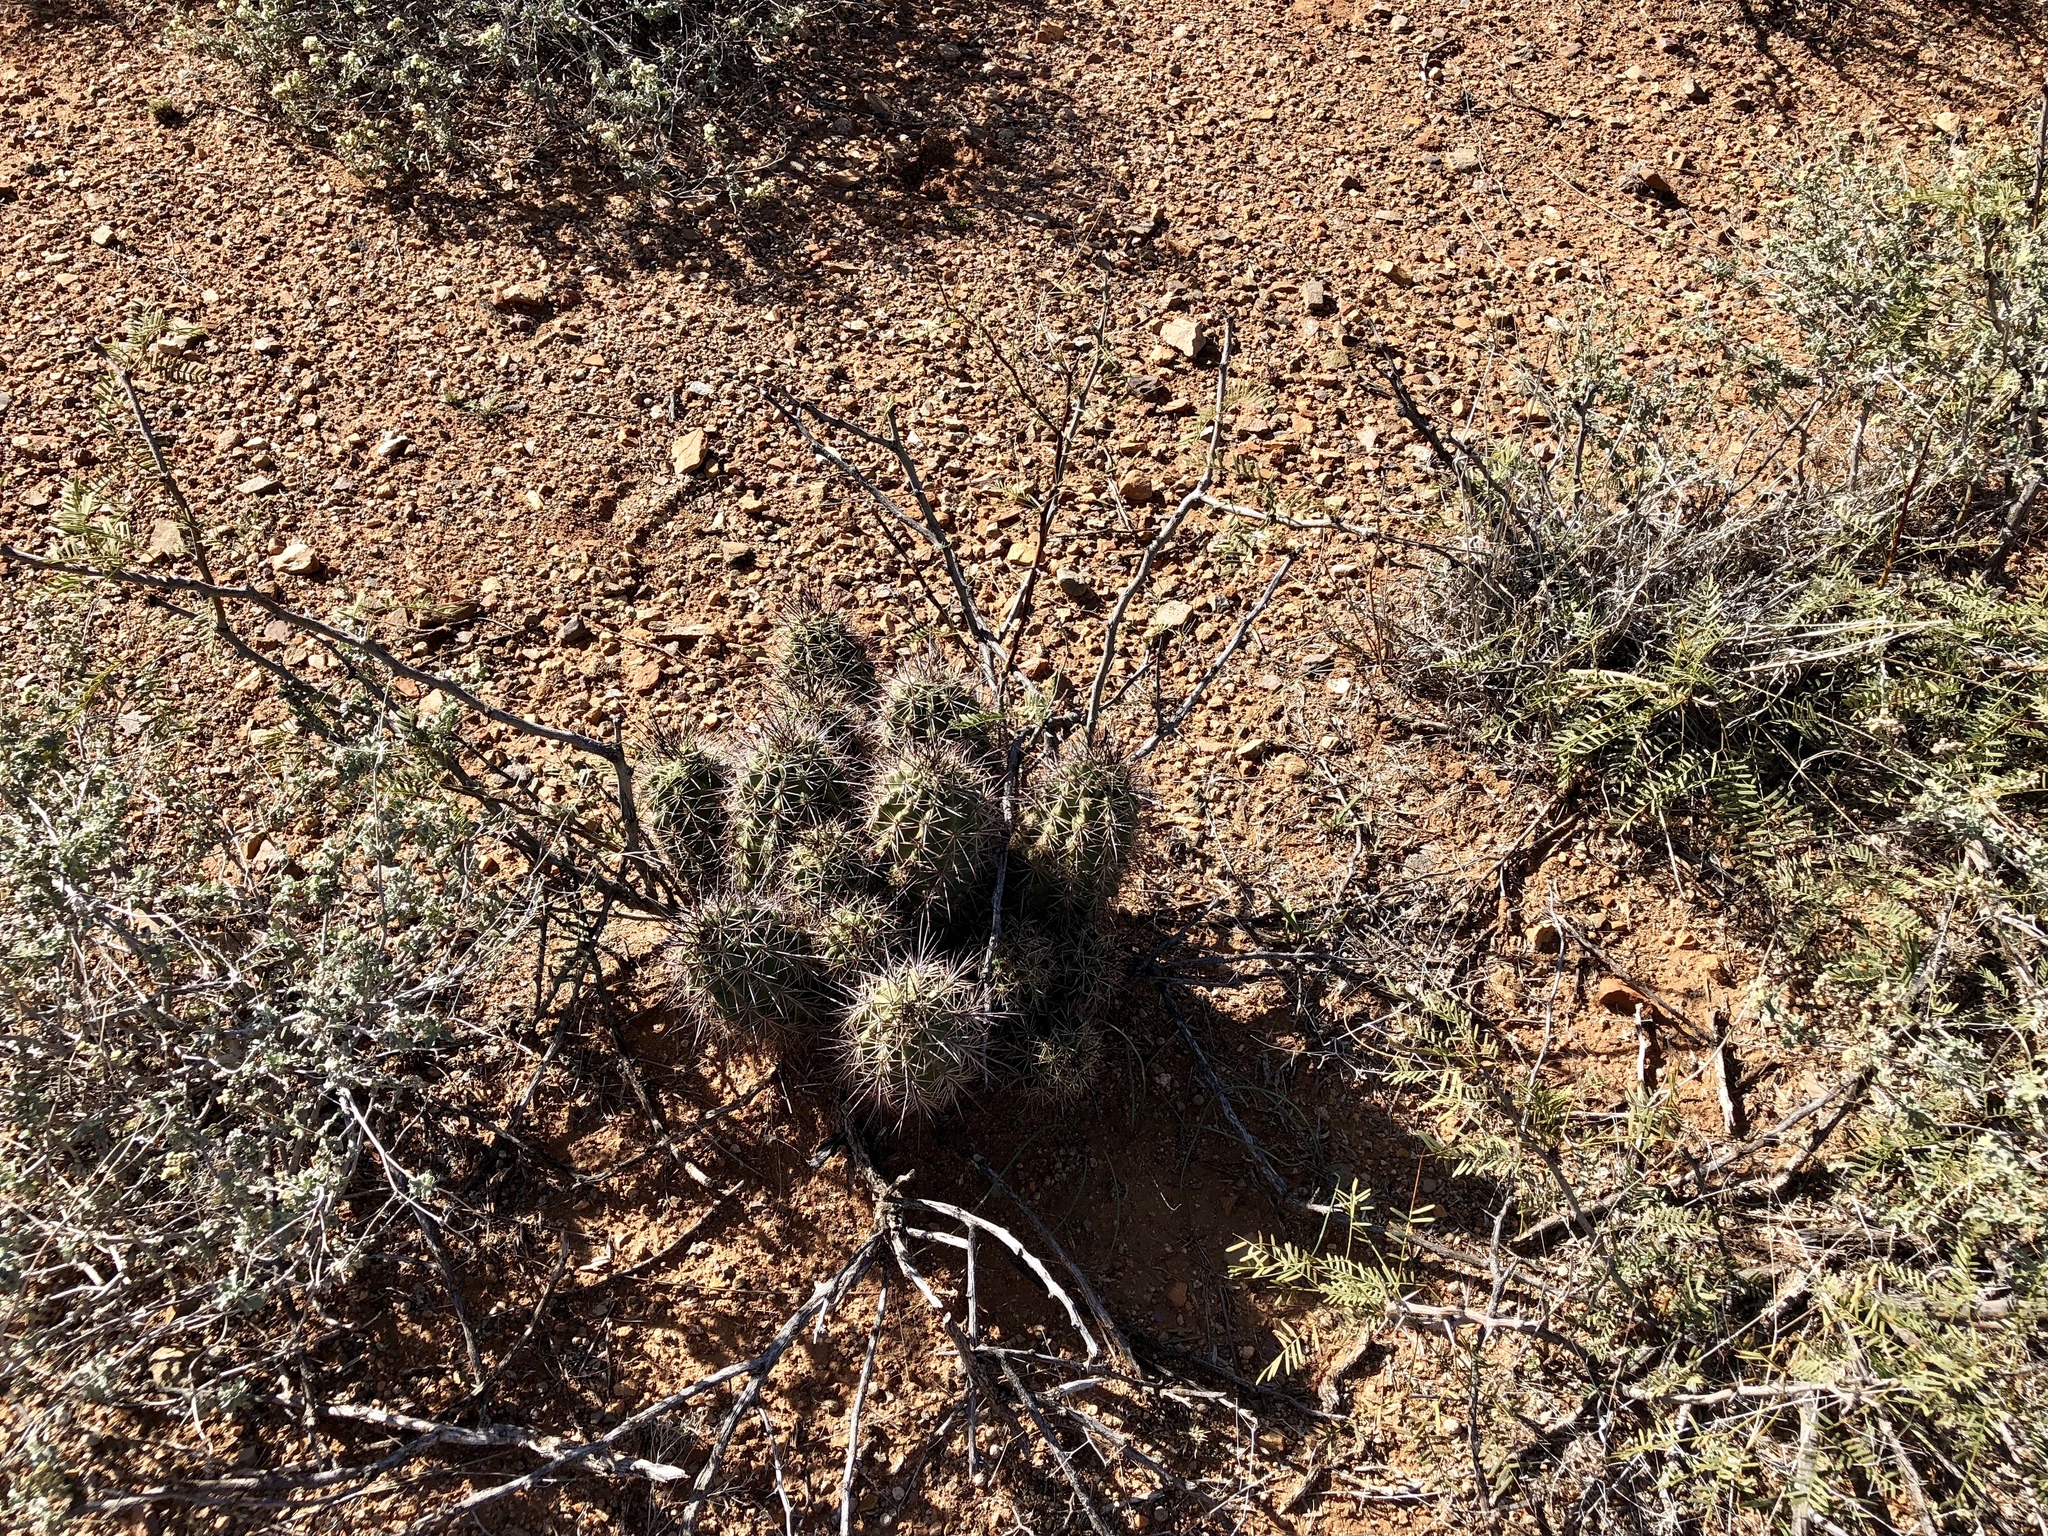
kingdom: Plantae
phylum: Tracheophyta
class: Magnoliopsida
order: Caryophyllales
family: Cactaceae
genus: Echinocereus
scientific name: Echinocereus coccineus
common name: Scarlet hedgehog cactus
